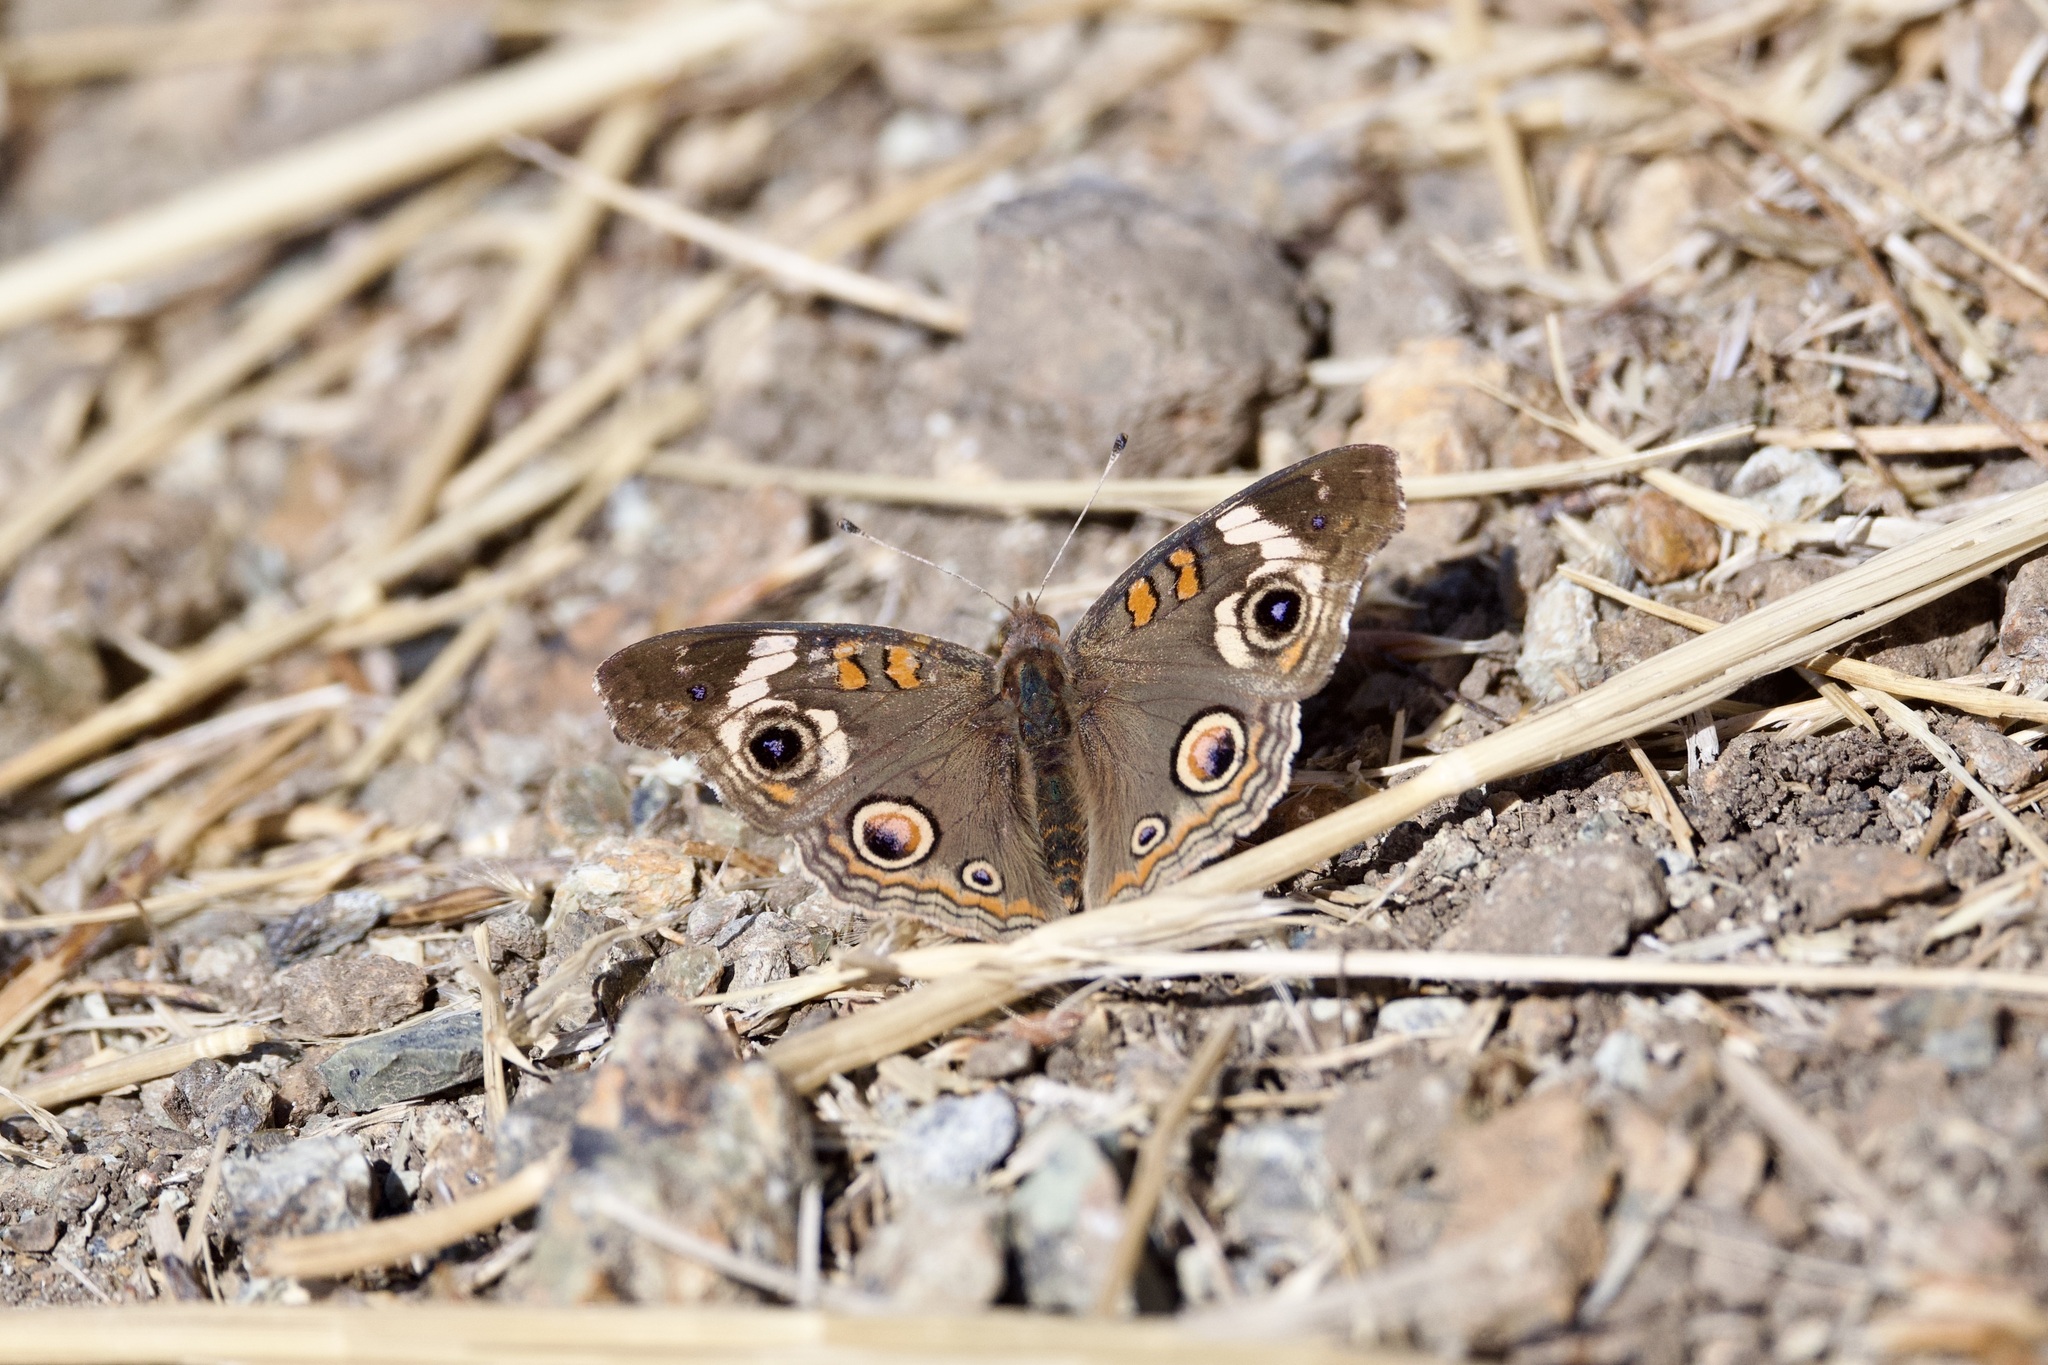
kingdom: Animalia
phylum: Arthropoda
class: Insecta
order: Lepidoptera
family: Nymphalidae
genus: Junonia
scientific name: Junonia grisea
